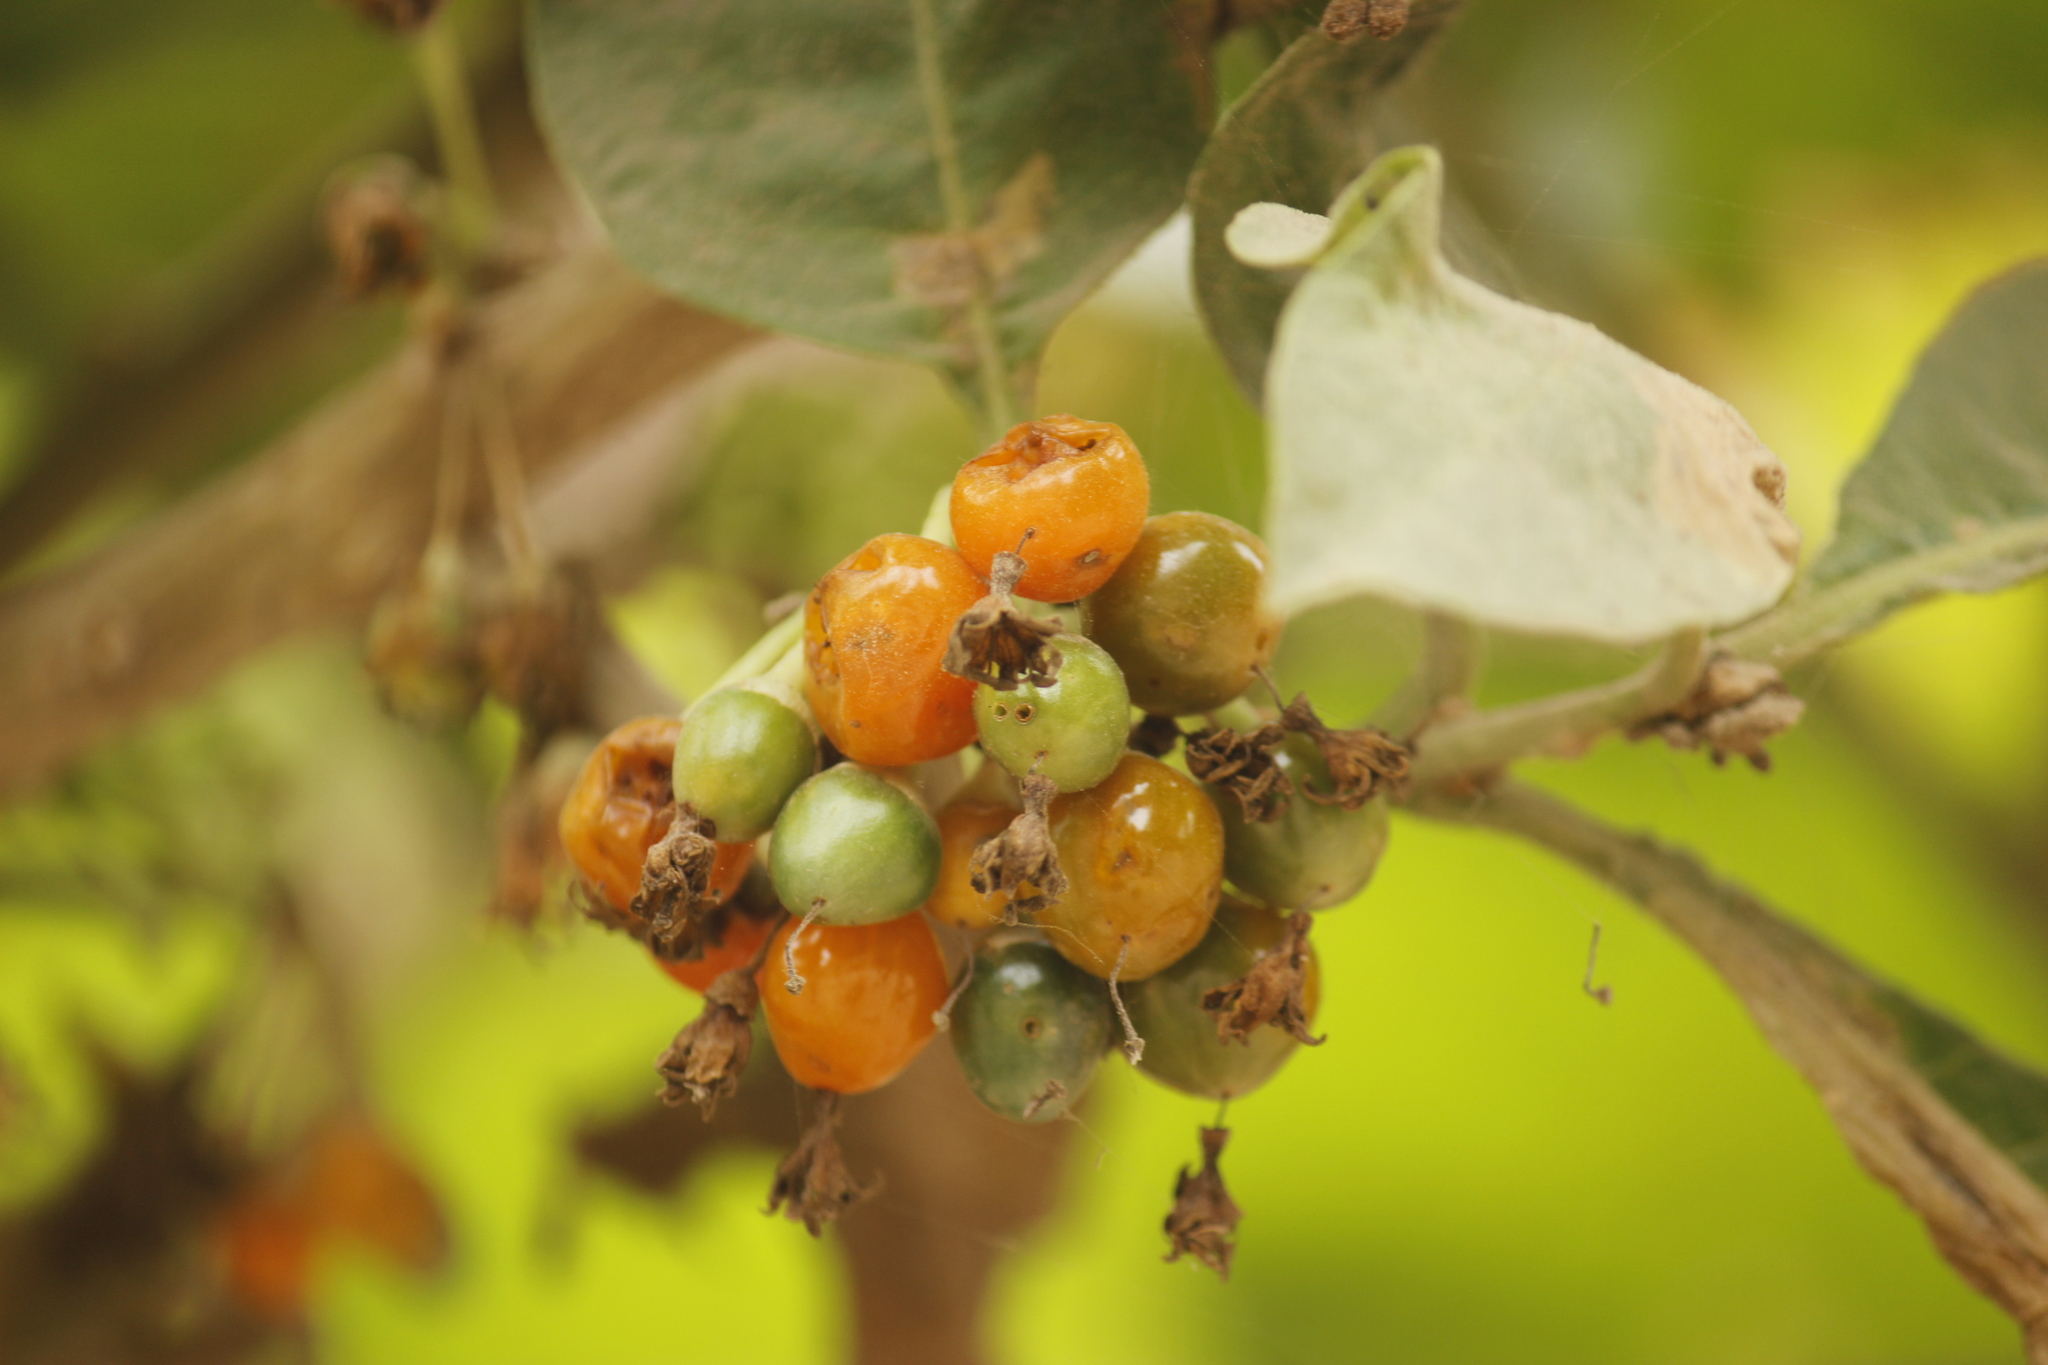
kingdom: Plantae
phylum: Tracheophyta
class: Magnoliopsida
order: Solanales
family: Solanaceae
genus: Iochroma
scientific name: Iochroma arborescens
